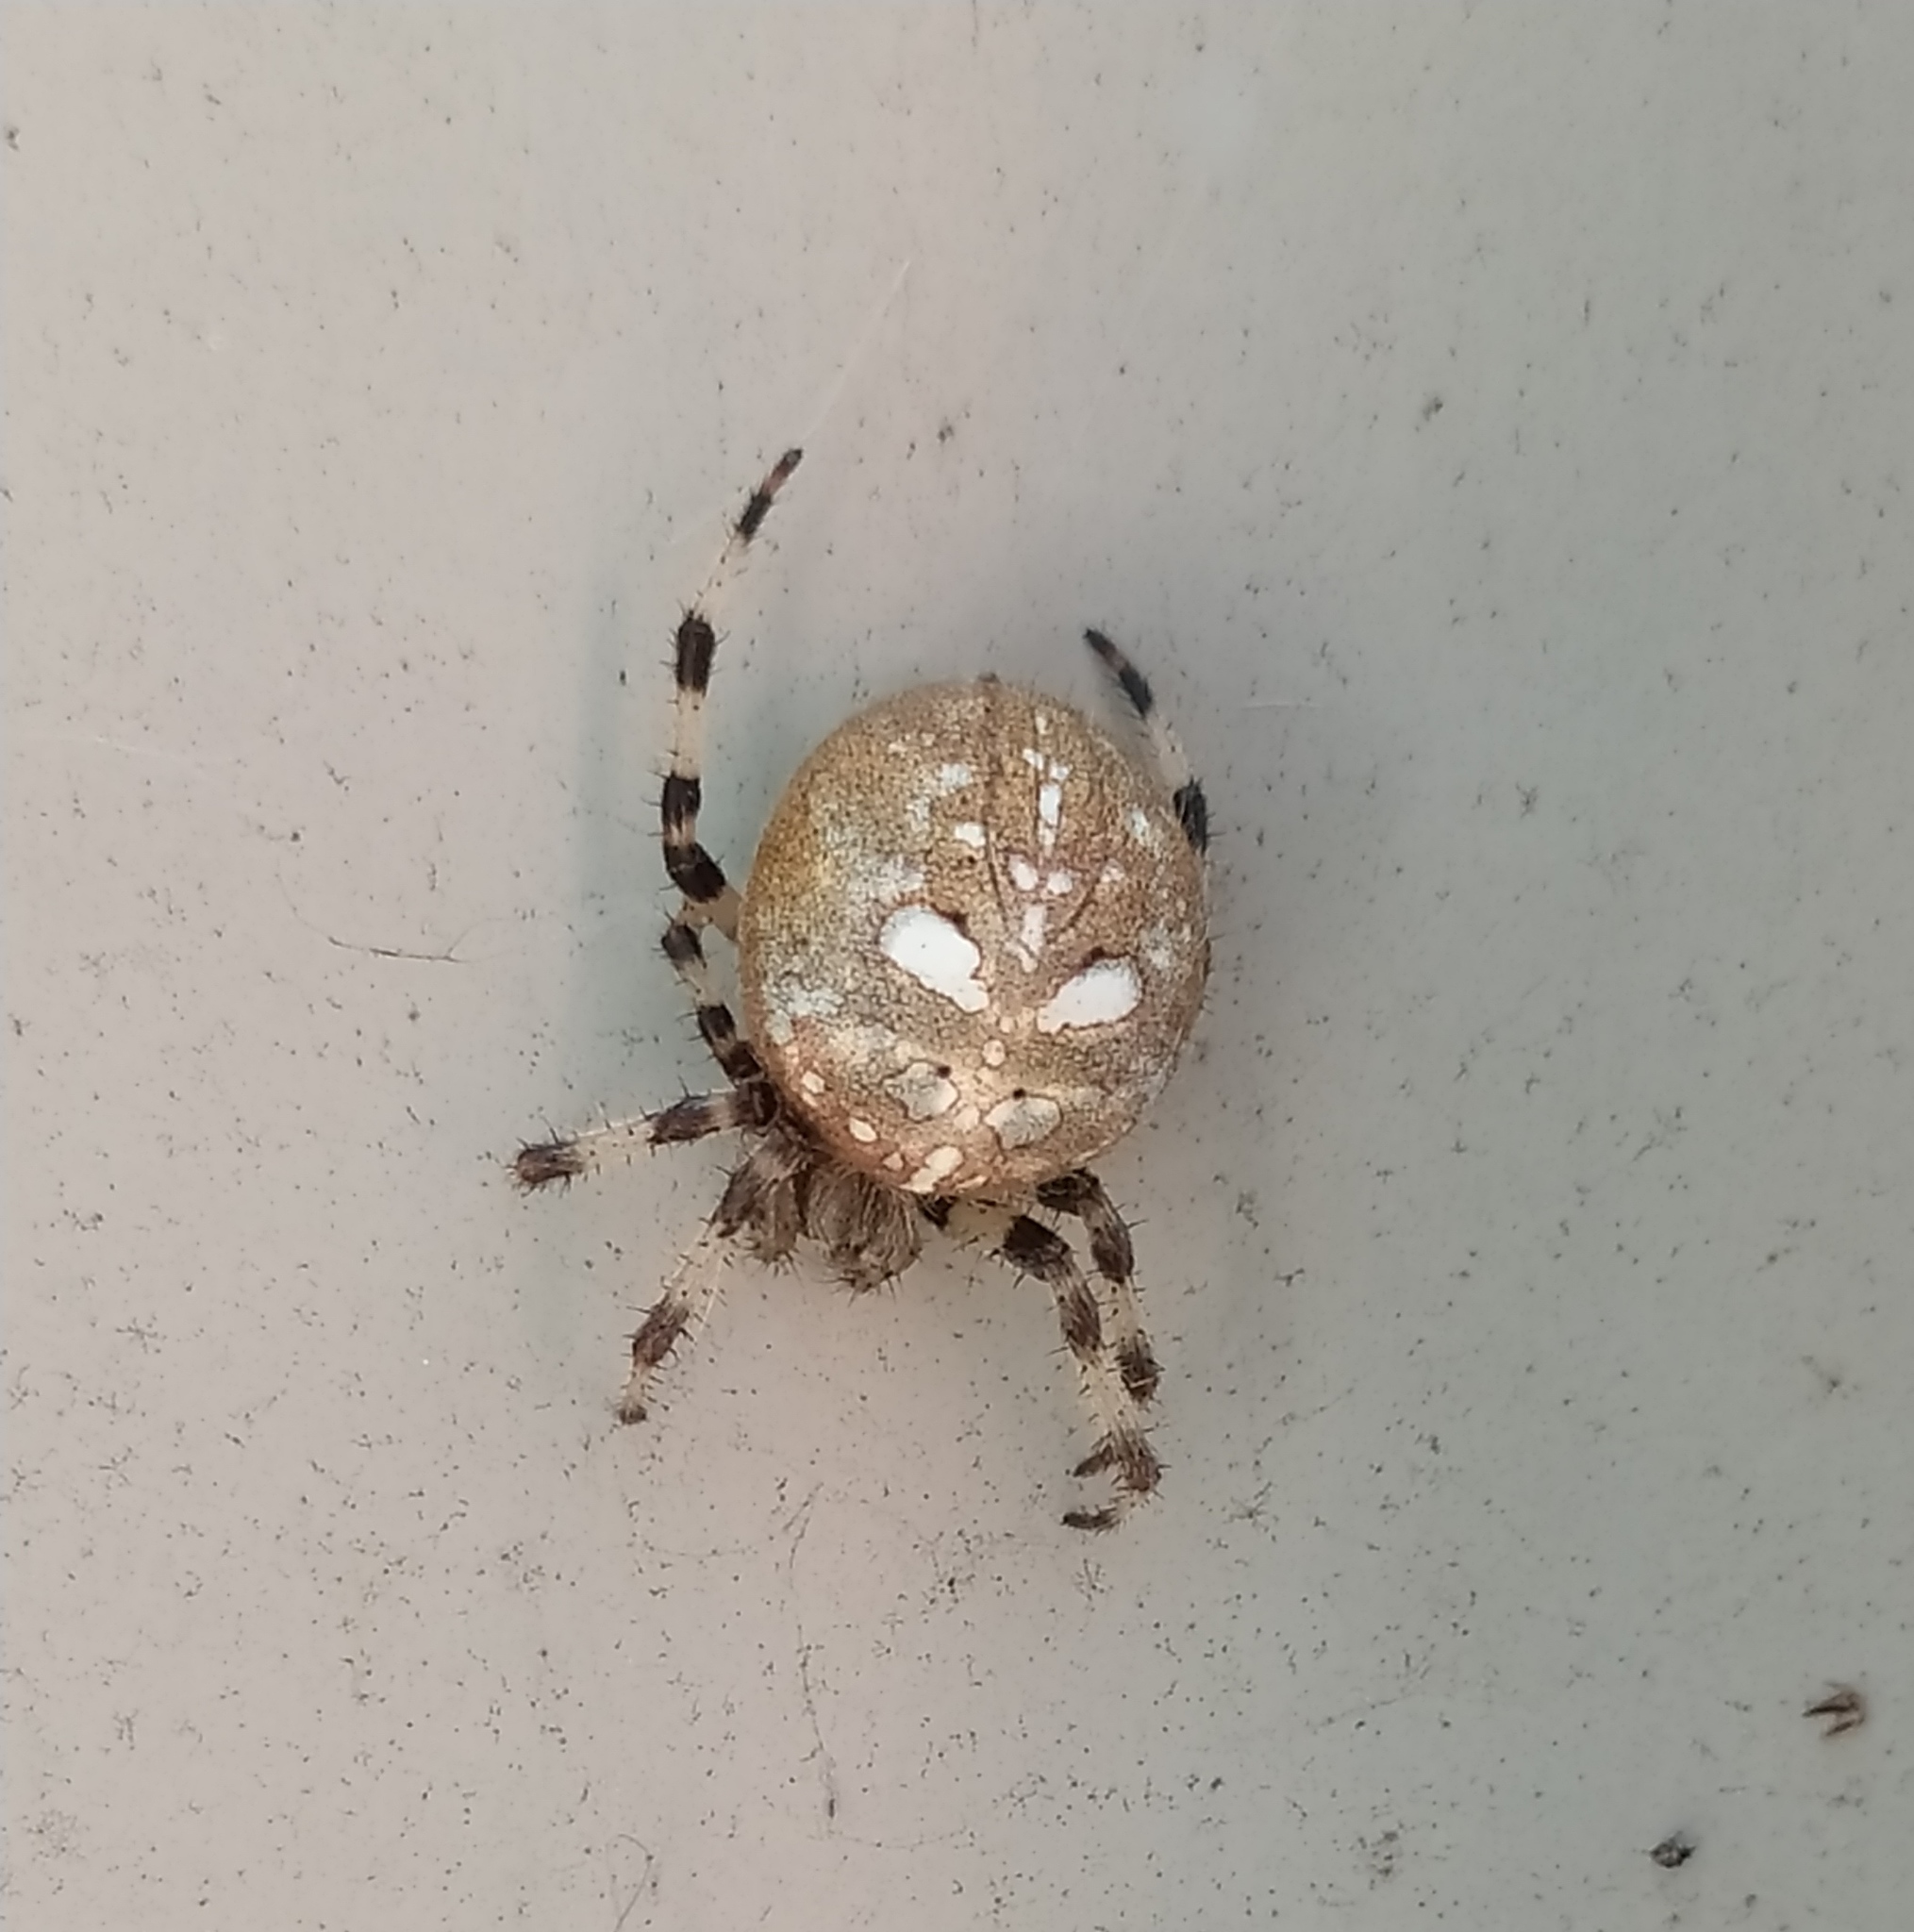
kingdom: Animalia
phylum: Arthropoda
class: Arachnida
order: Araneae
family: Araneidae
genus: Araneus
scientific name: Araneus quadratus
